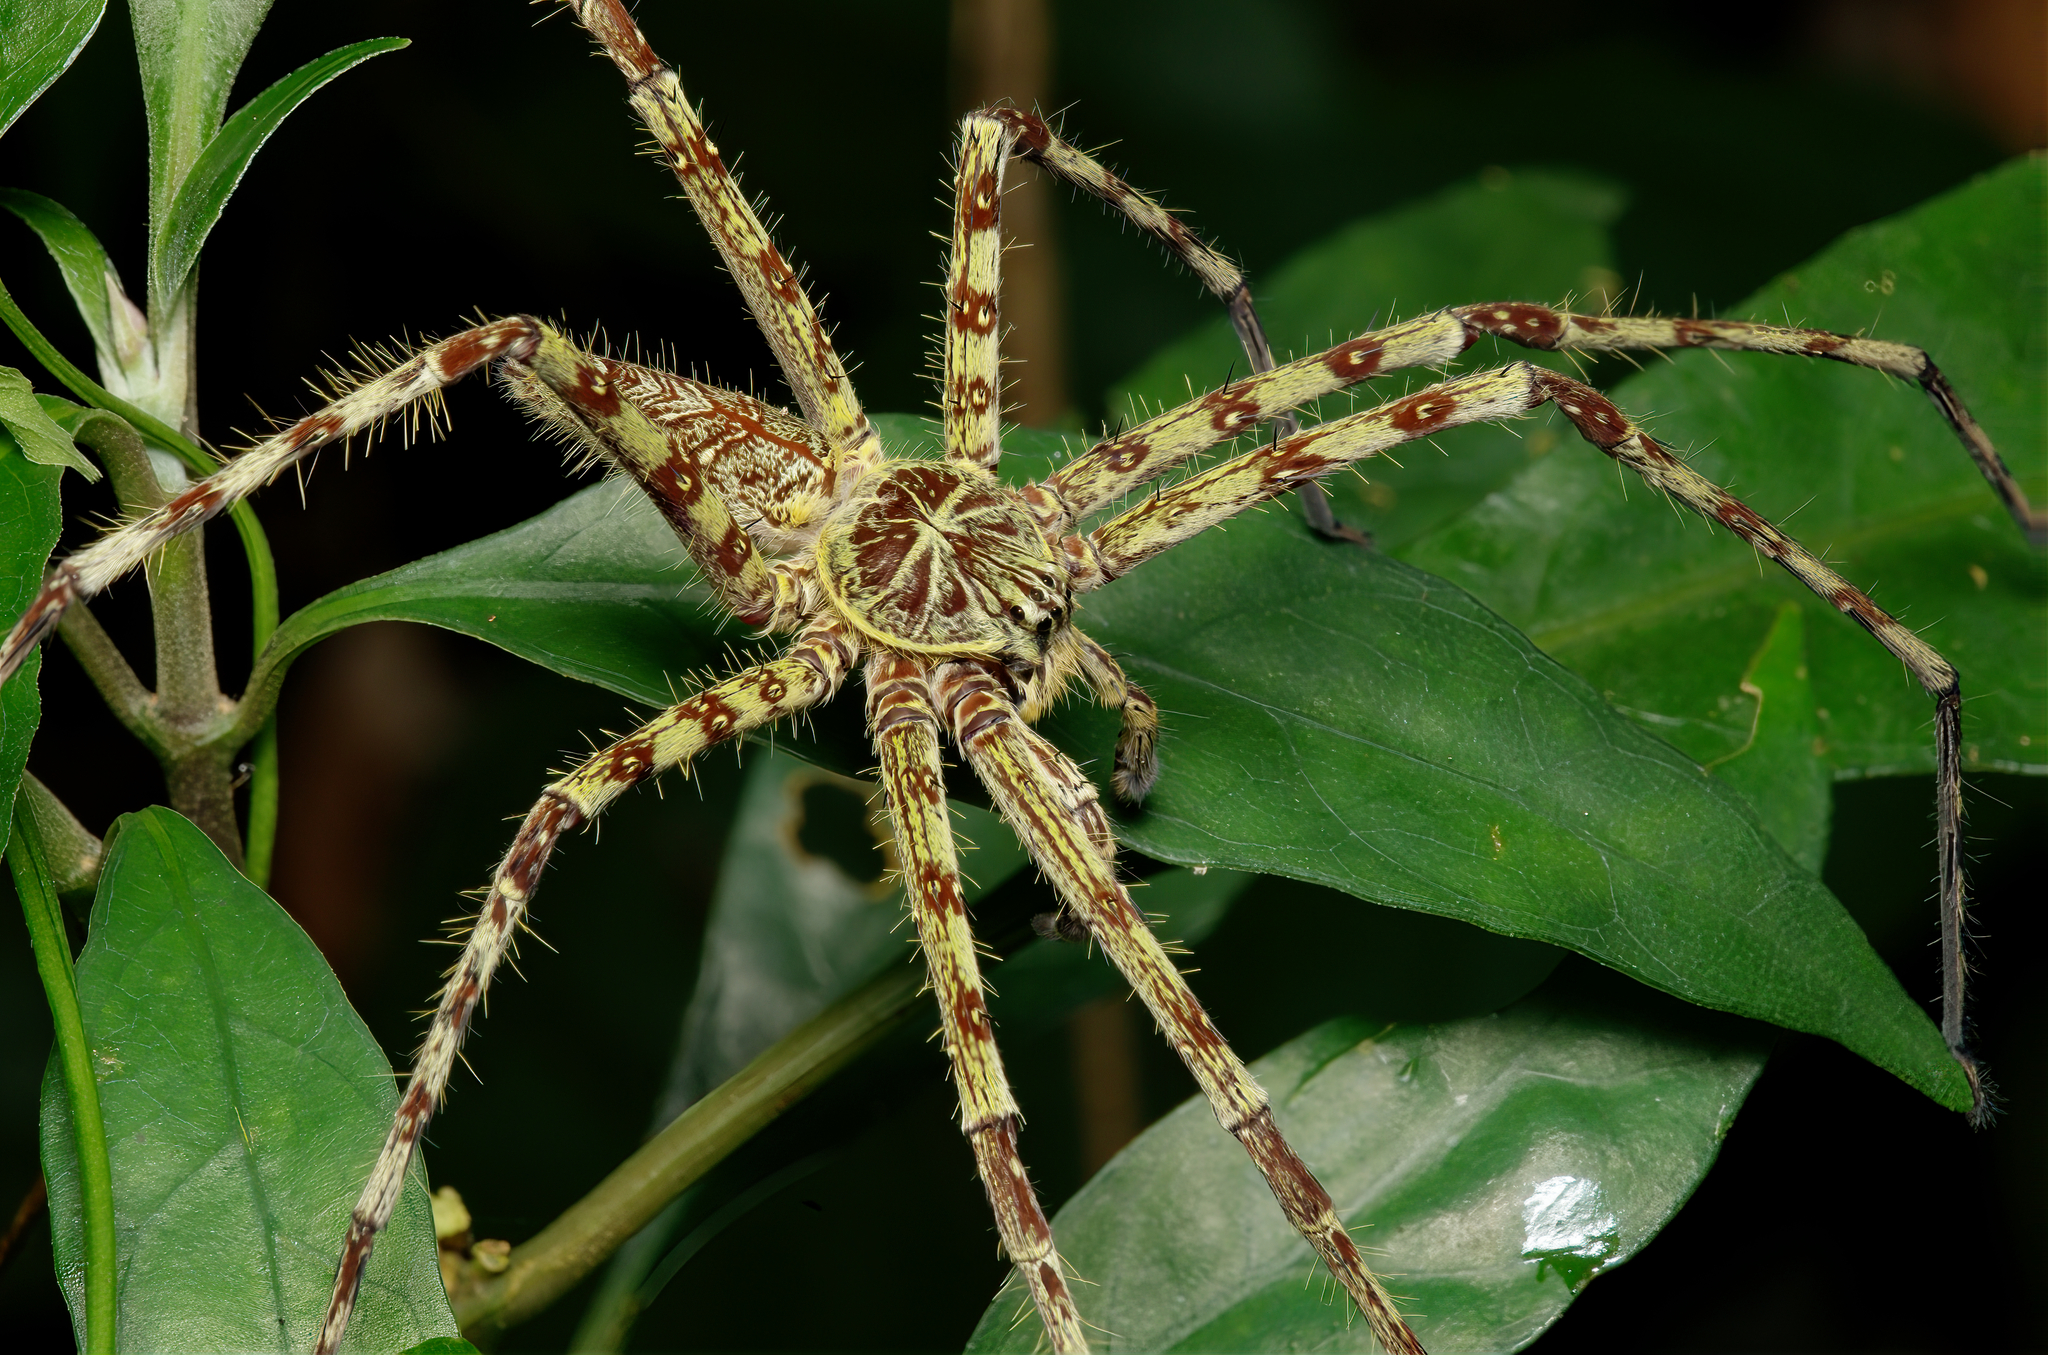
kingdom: Animalia
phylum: Arthropoda
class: Arachnida
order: Araneae
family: Sparassidae
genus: Heteropoda
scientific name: Heteropoda boiei
